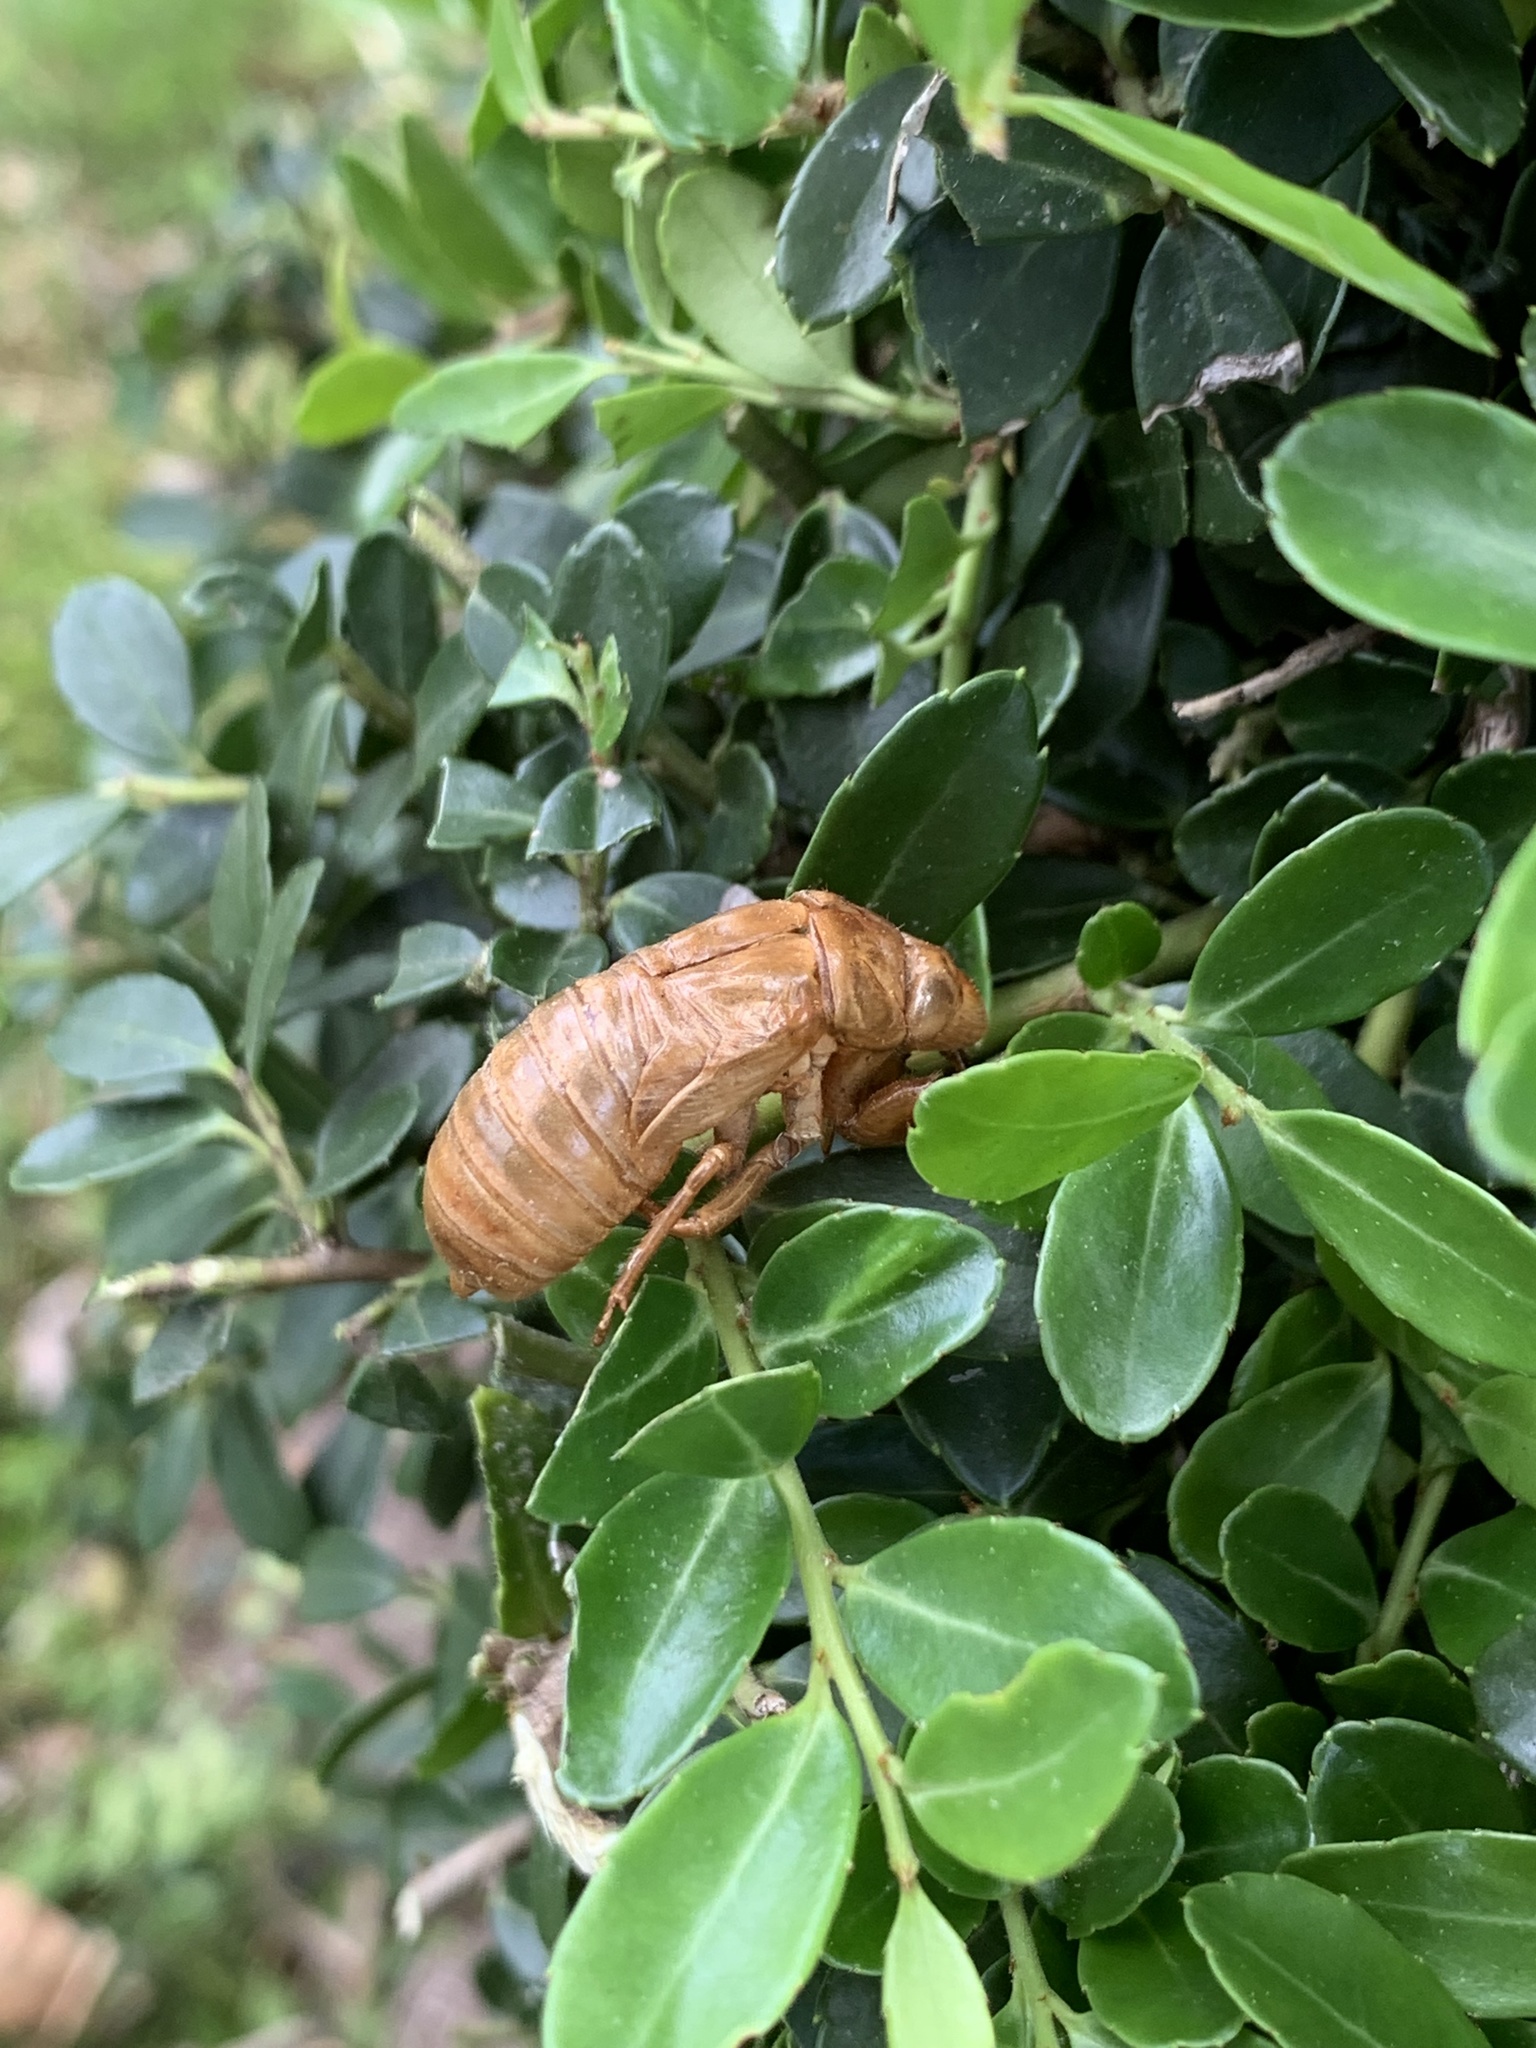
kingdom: Animalia
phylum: Arthropoda
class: Insecta
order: Hemiptera
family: Cicadidae
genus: Magicicada
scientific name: Magicicada
